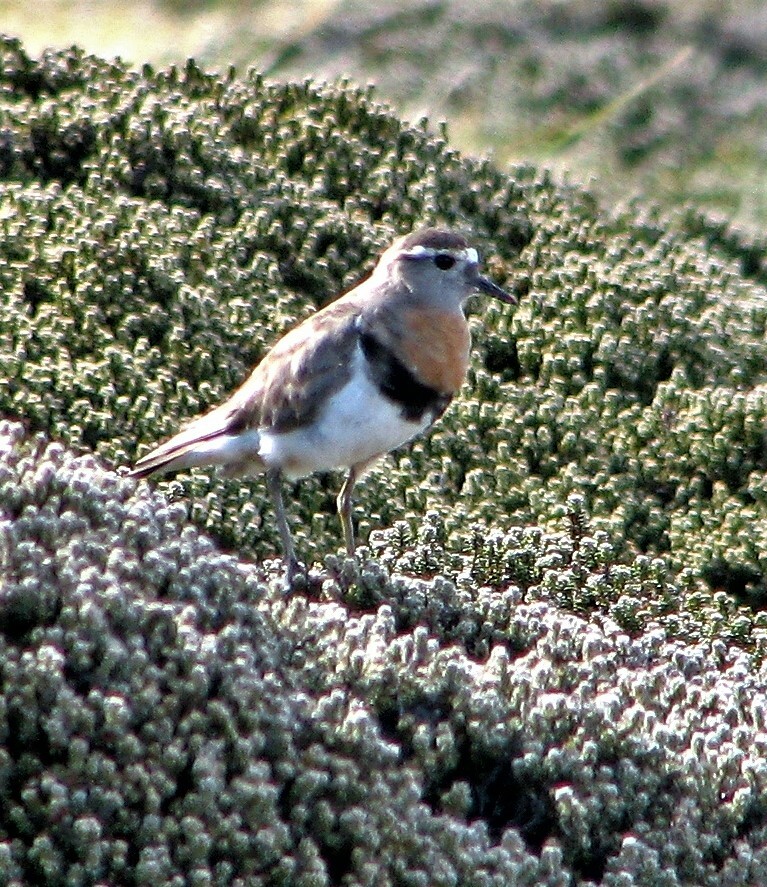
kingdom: Animalia
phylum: Chordata
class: Aves
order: Charadriiformes
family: Charadriidae
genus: Charadrius
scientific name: Charadrius modestus
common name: Rufous-chested plover
